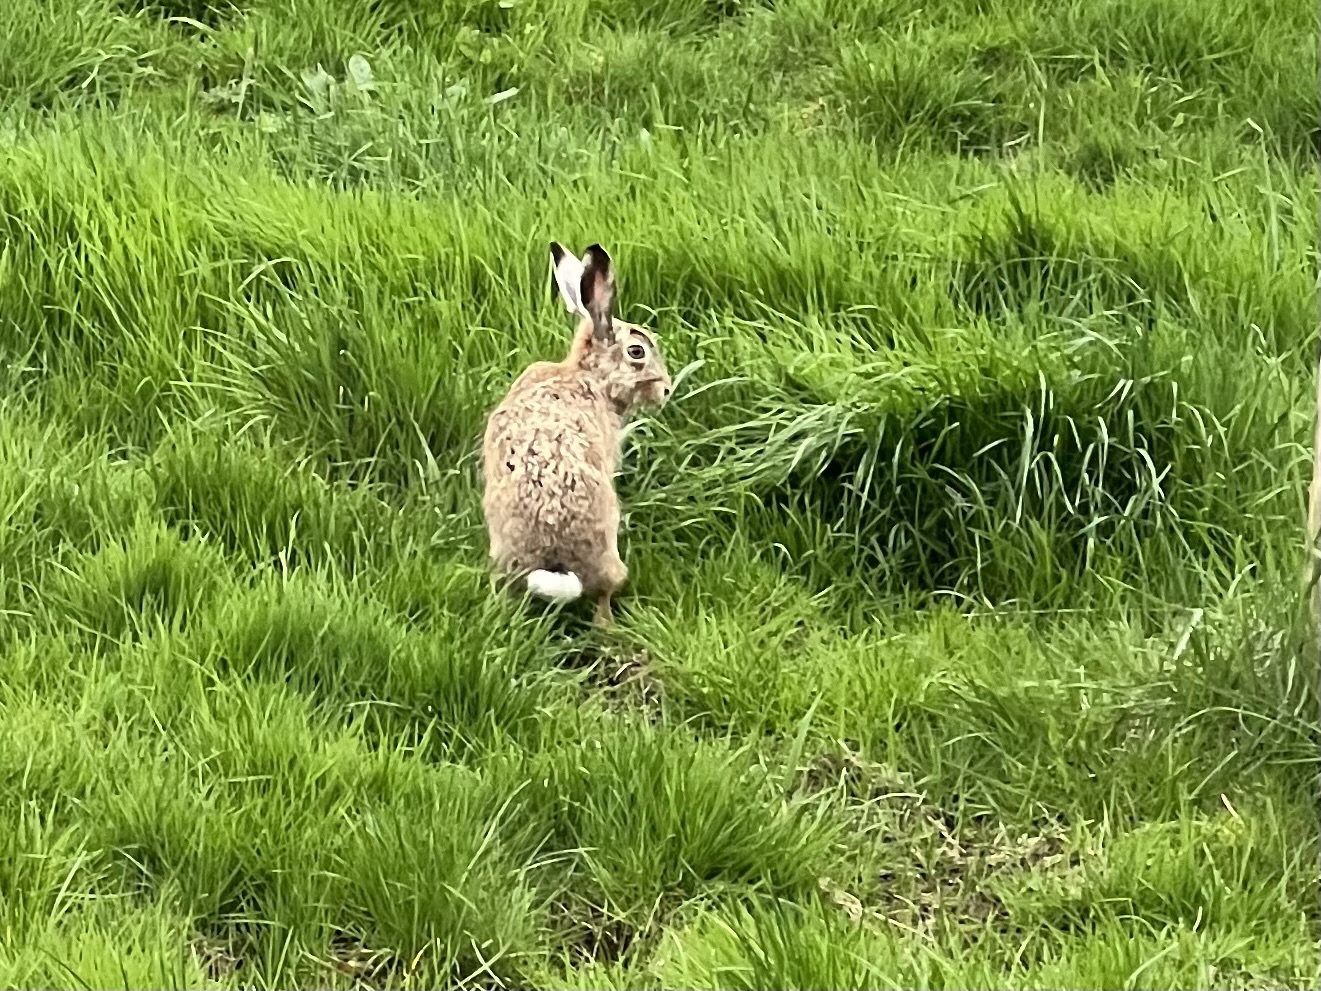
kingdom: Animalia
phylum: Chordata
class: Mammalia
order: Lagomorpha
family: Leporidae
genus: Lepus
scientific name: Lepus europaeus
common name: European hare
